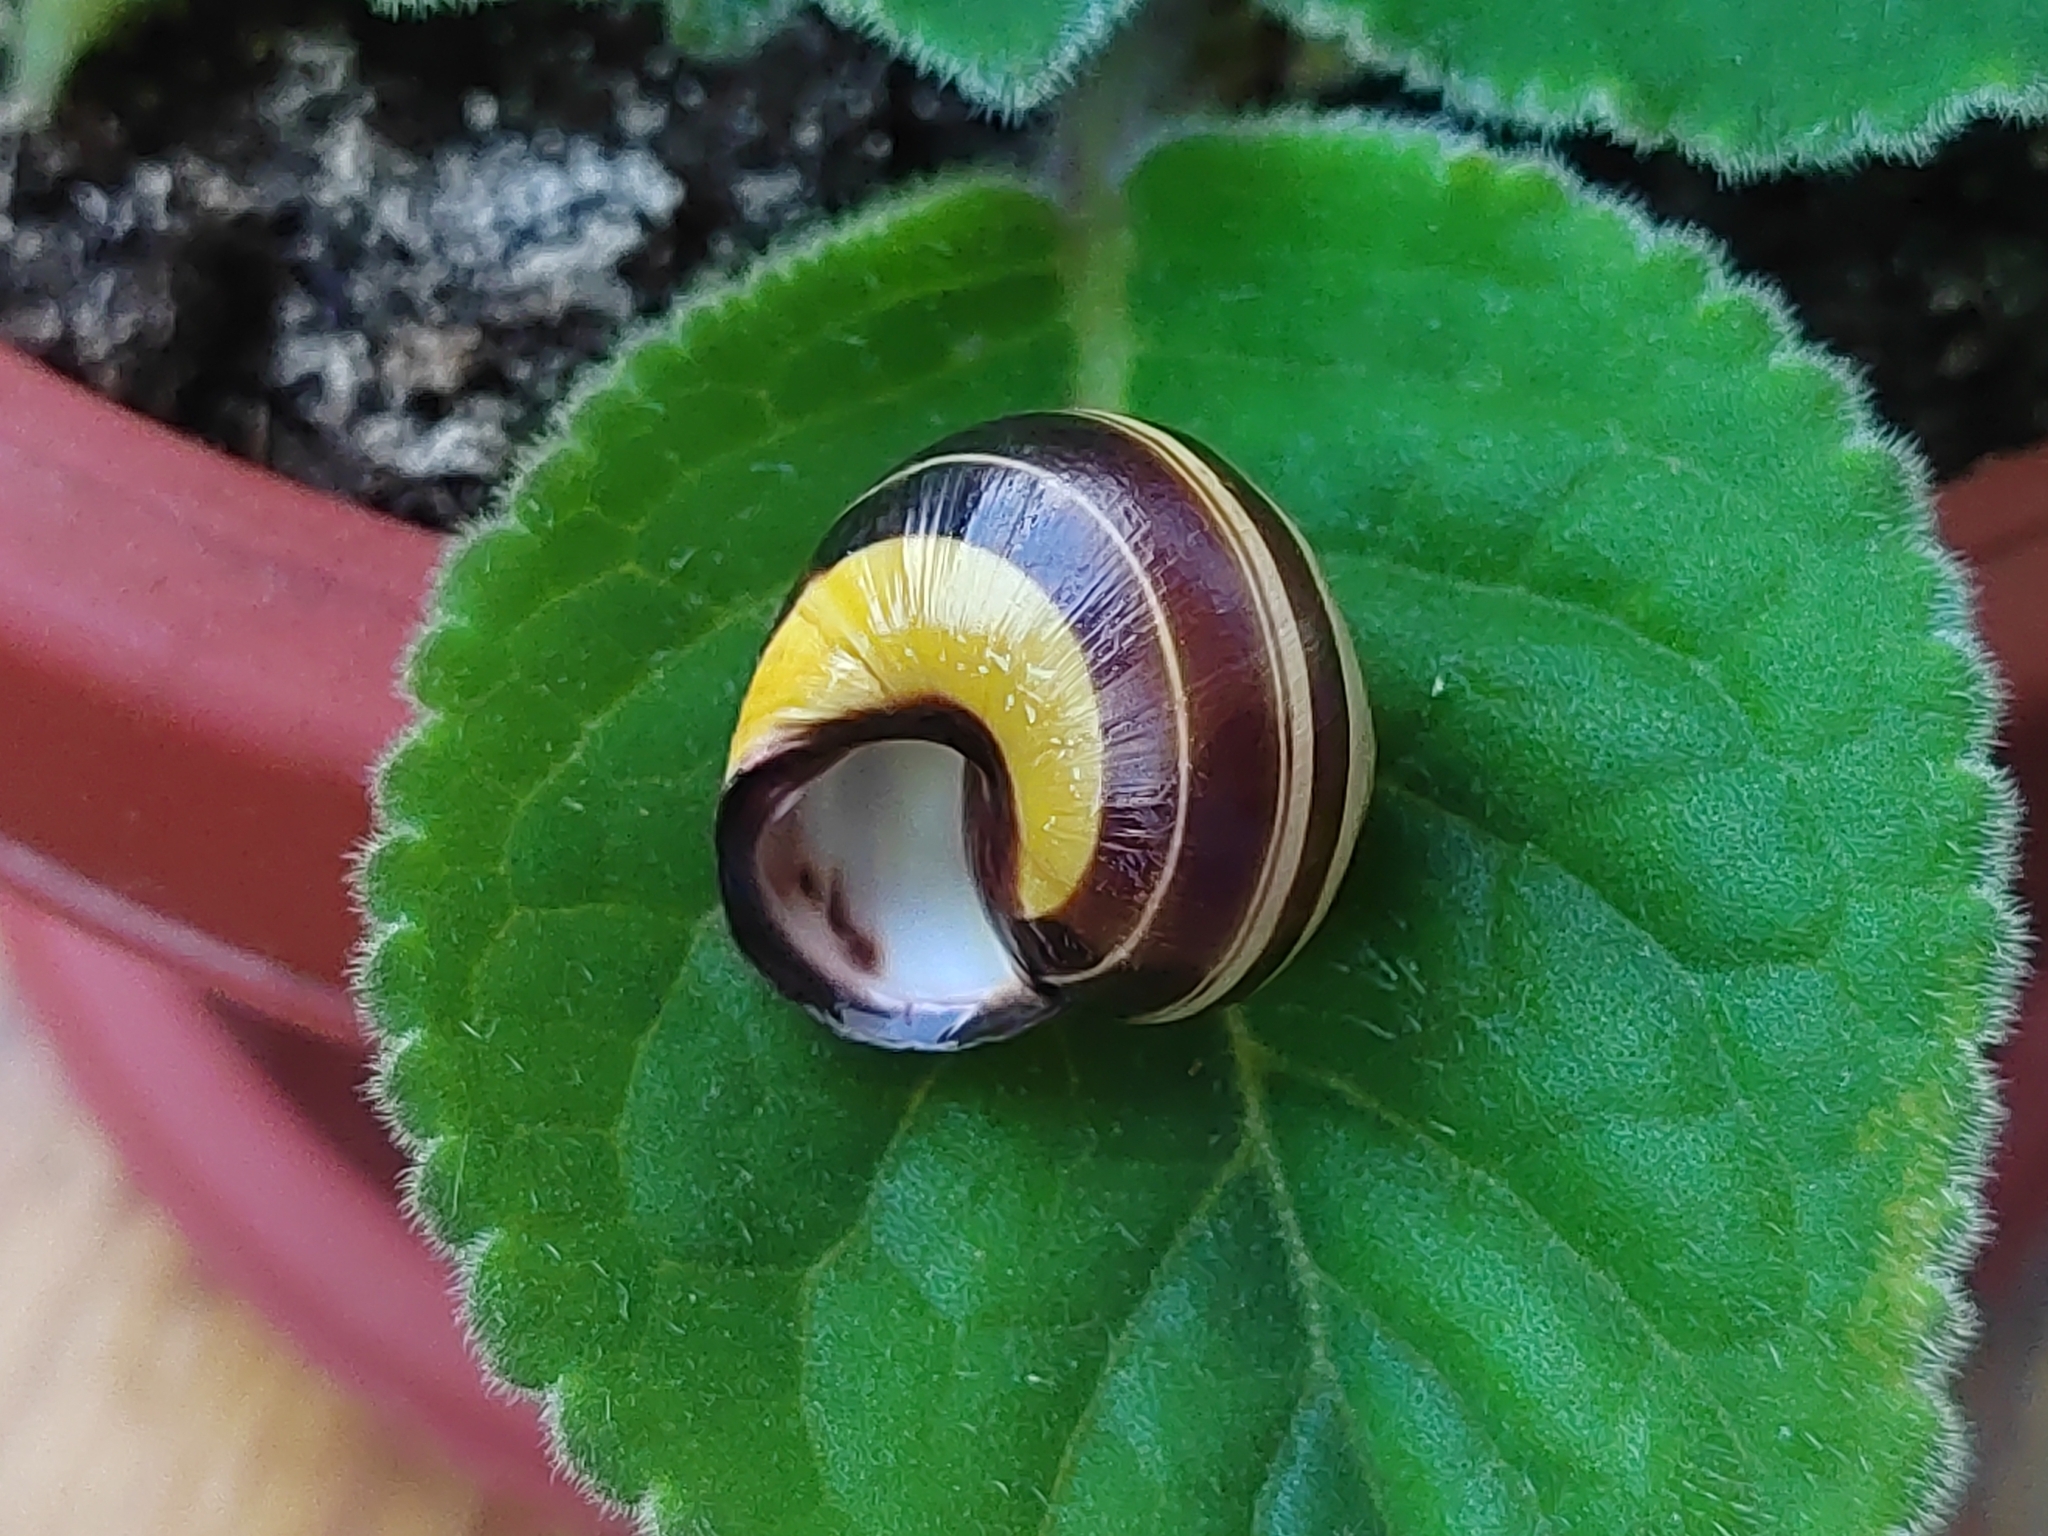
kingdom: Animalia
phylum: Mollusca
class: Gastropoda
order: Stylommatophora
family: Helicidae
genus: Cepaea
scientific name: Cepaea nemoralis
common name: Grovesnail
